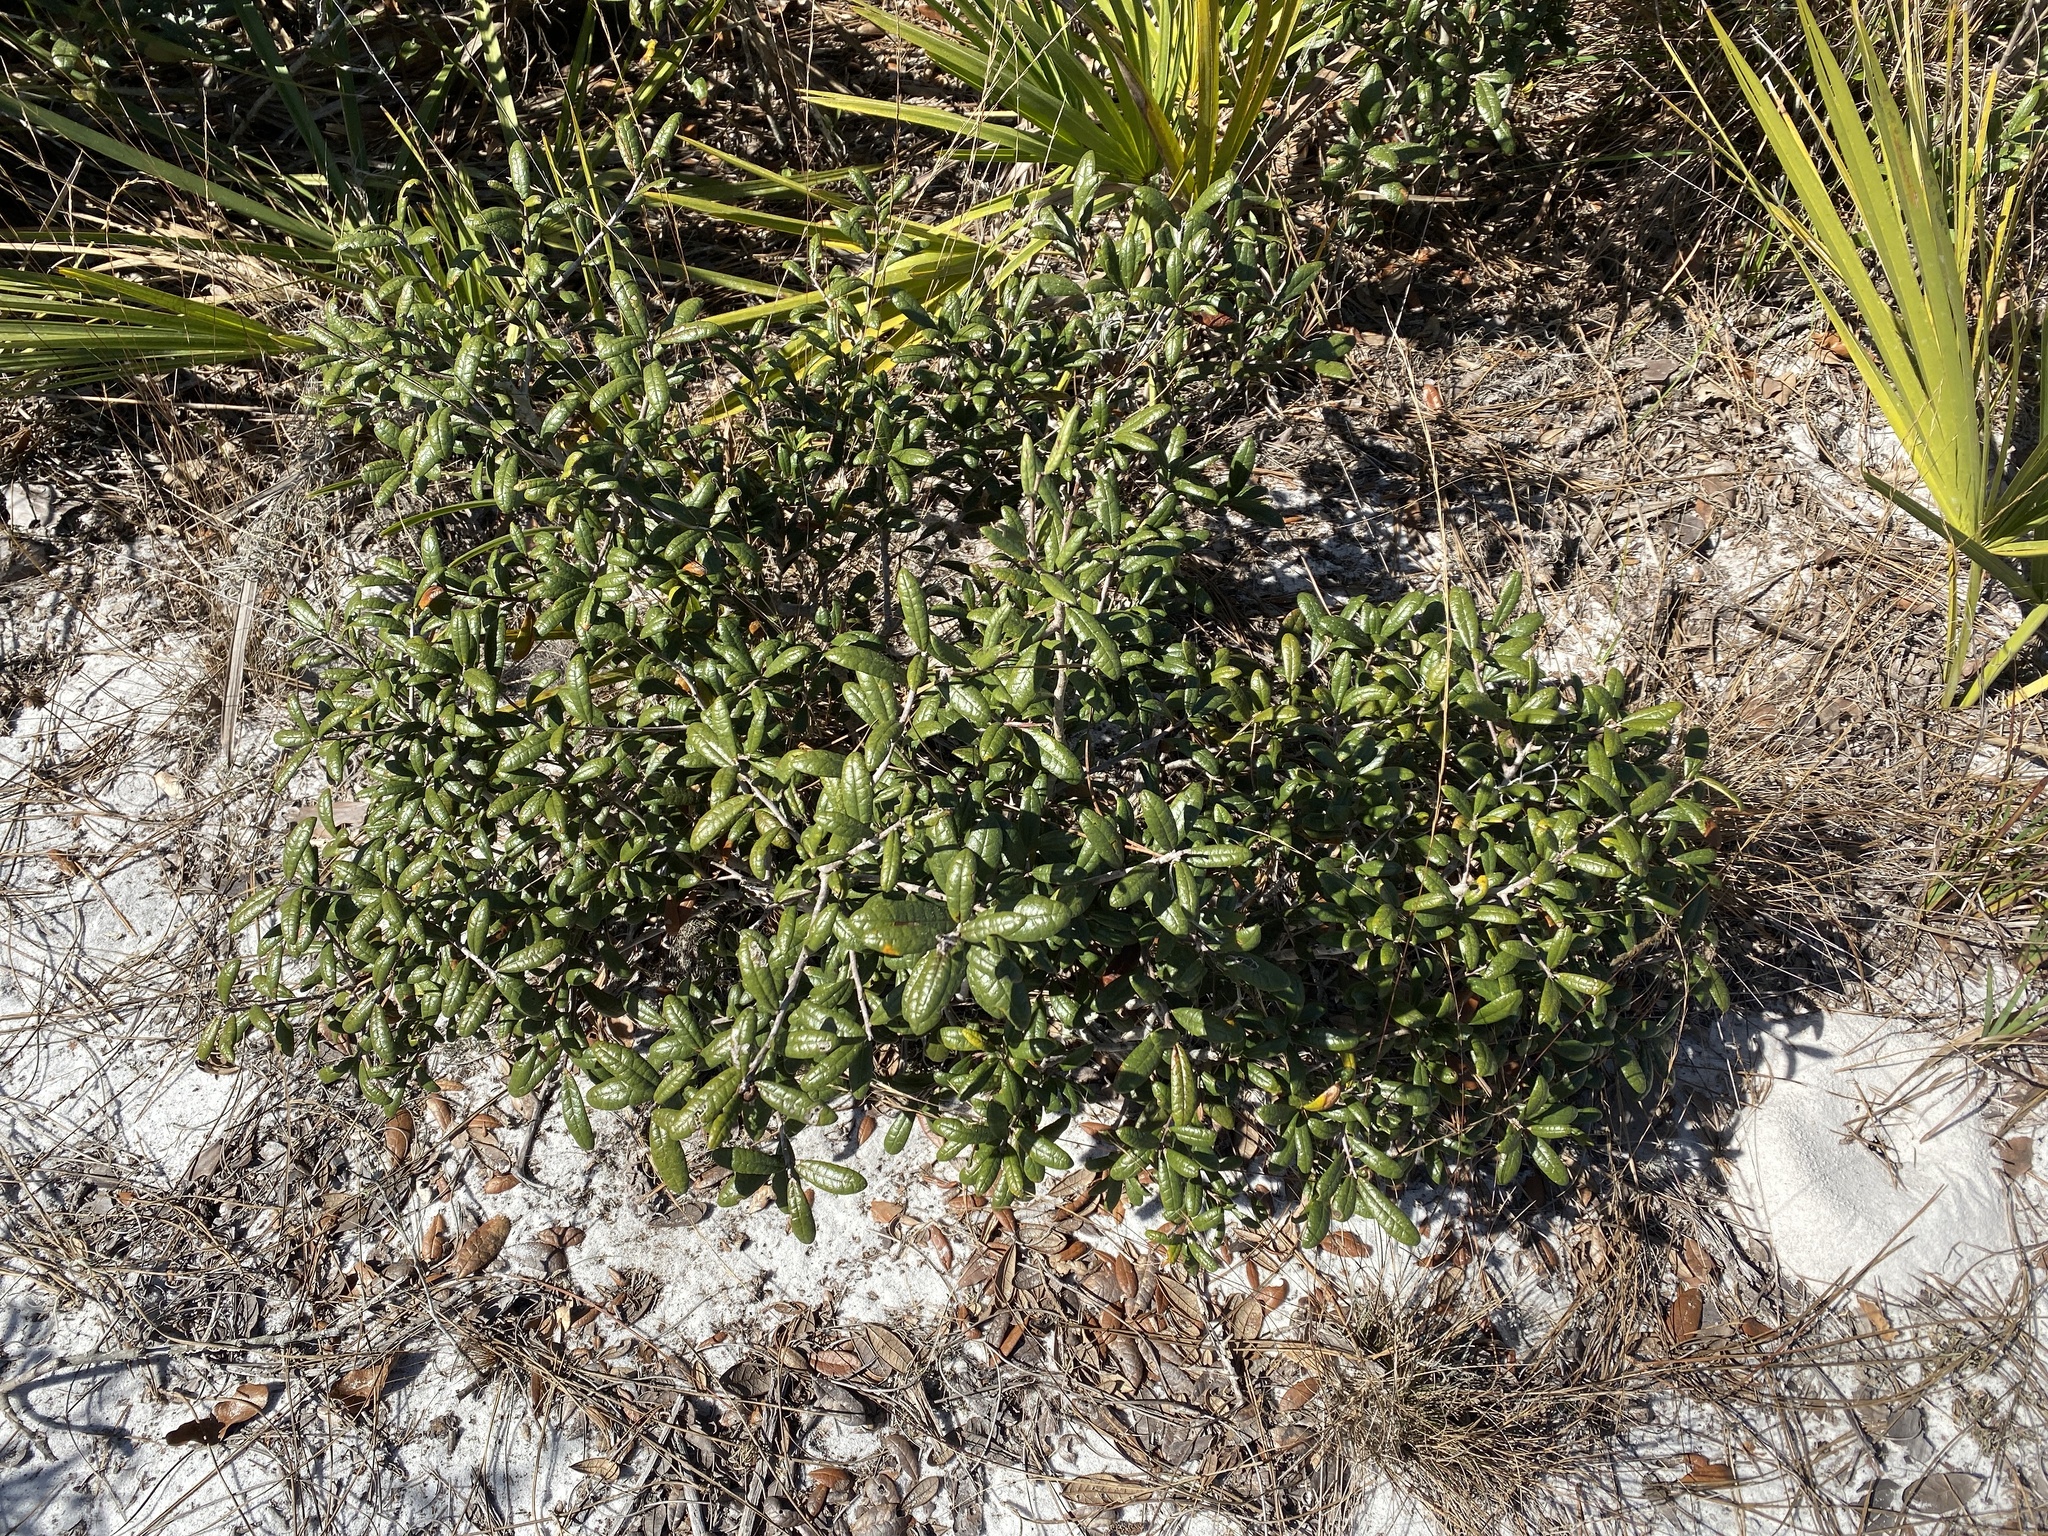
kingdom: Plantae
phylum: Tracheophyta
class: Magnoliopsida
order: Fagales
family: Fagaceae
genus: Quercus
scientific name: Quercus geminata
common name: Sand live oak
